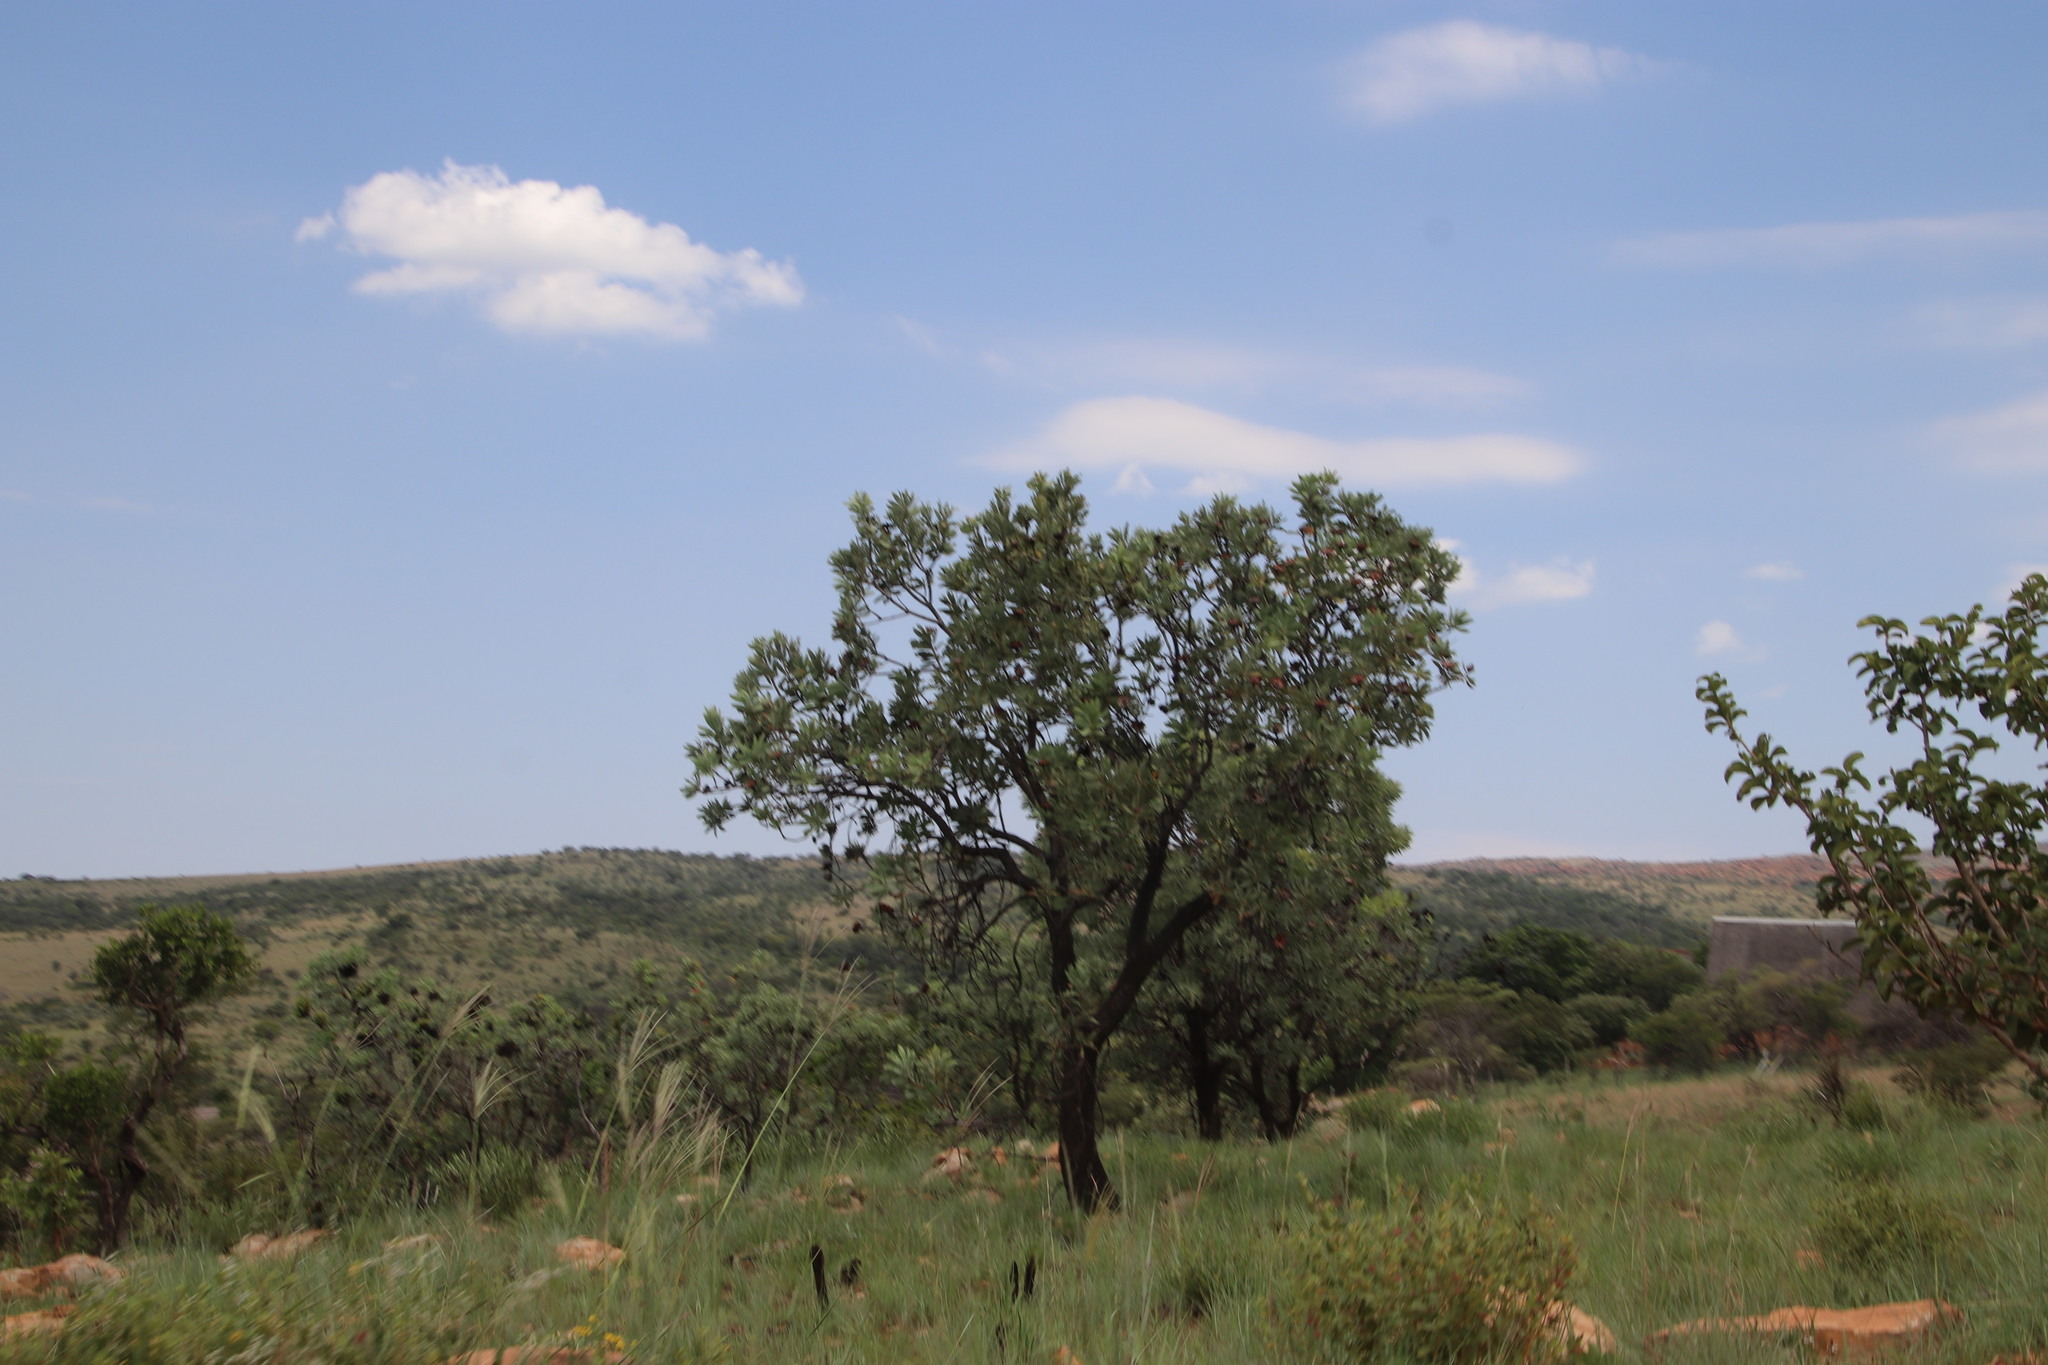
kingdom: Plantae
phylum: Tracheophyta
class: Magnoliopsida
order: Proteales
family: Proteaceae
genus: Protea
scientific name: Protea caffra
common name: Common sugarbush
